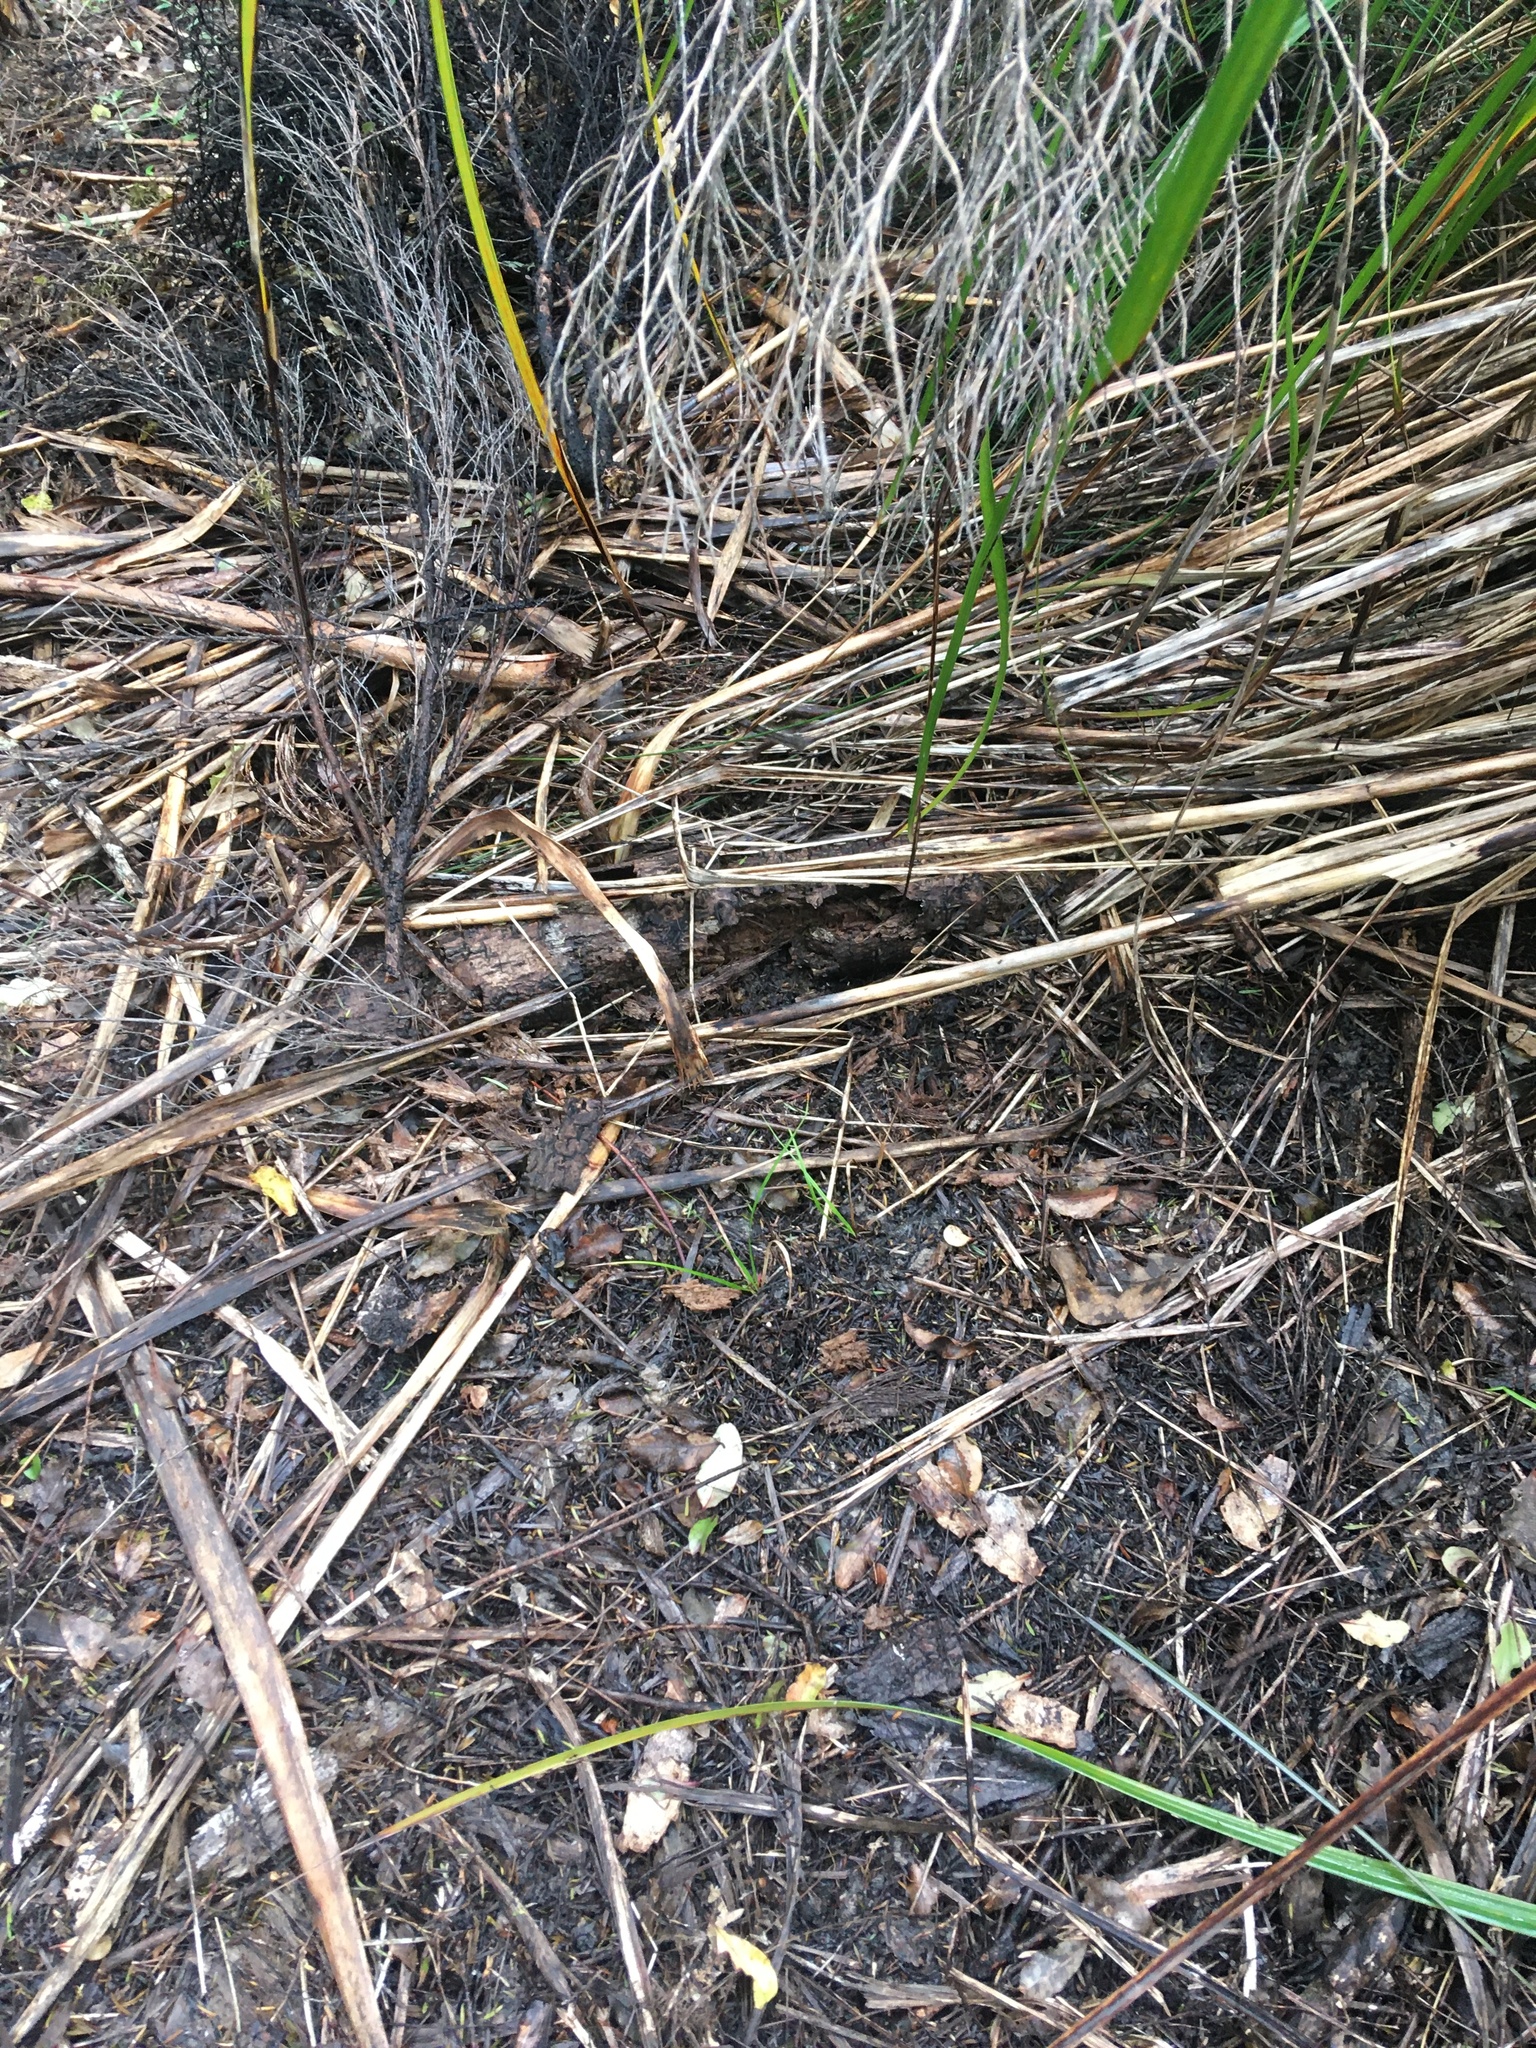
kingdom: Plantae
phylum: Tracheophyta
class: Liliopsida
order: Poales
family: Cyperaceae
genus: Gahnia
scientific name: Gahnia xanthocarpa
